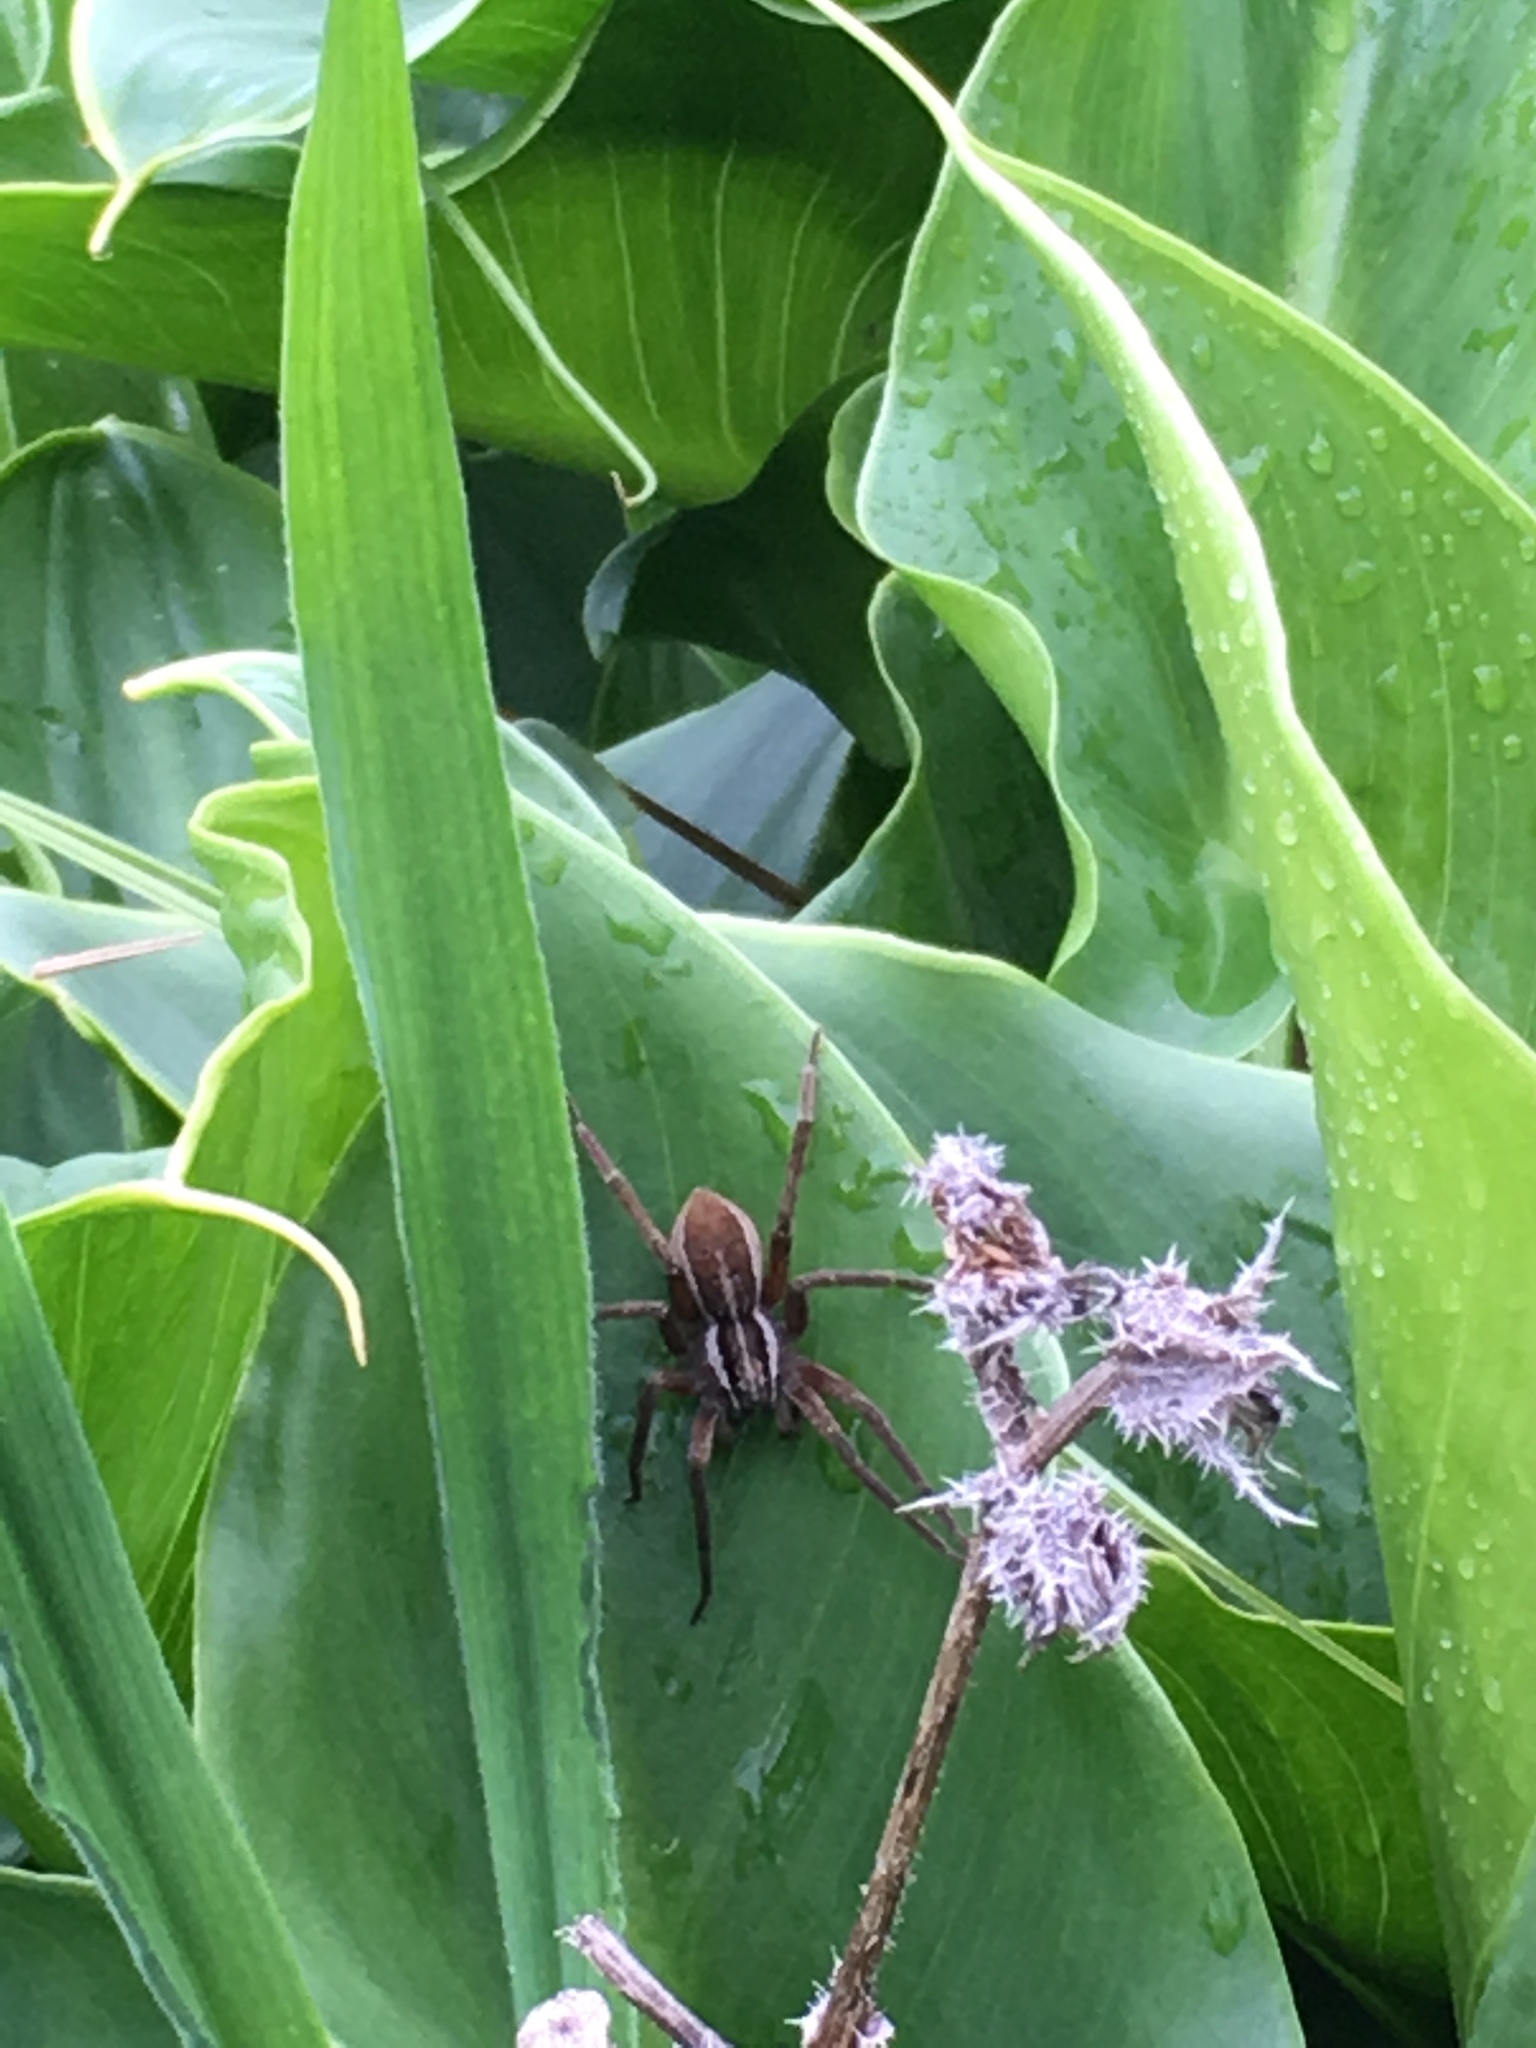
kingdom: Animalia
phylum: Arthropoda
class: Arachnida
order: Araneae
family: Pisauridae
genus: Dolomedes
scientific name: Dolomedes minor
